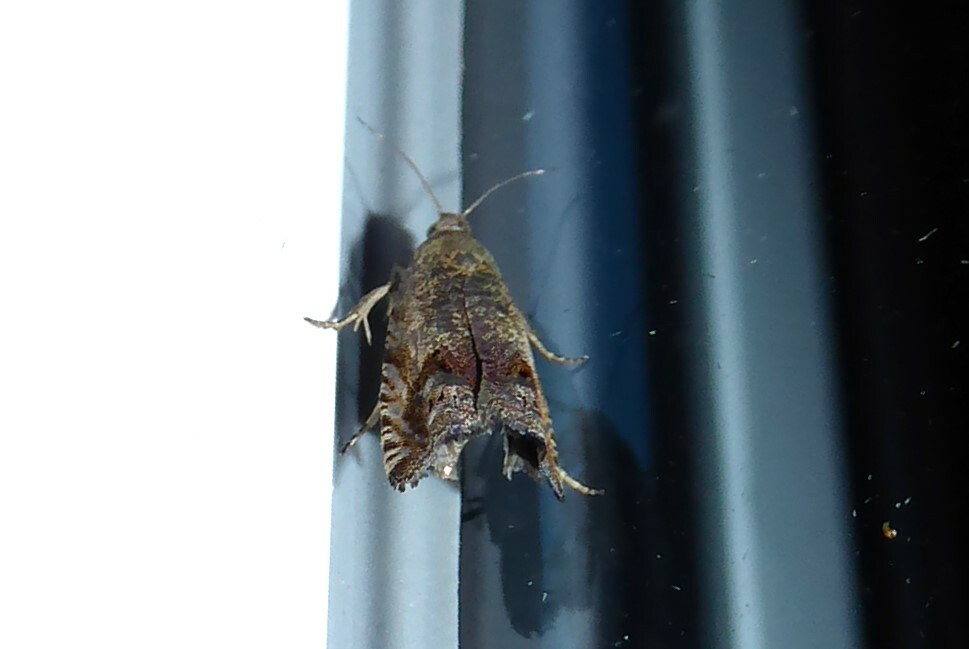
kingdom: Animalia
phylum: Arthropoda
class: Insecta
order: Lepidoptera
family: Tortricidae
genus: Cydia
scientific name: Cydia succedana
